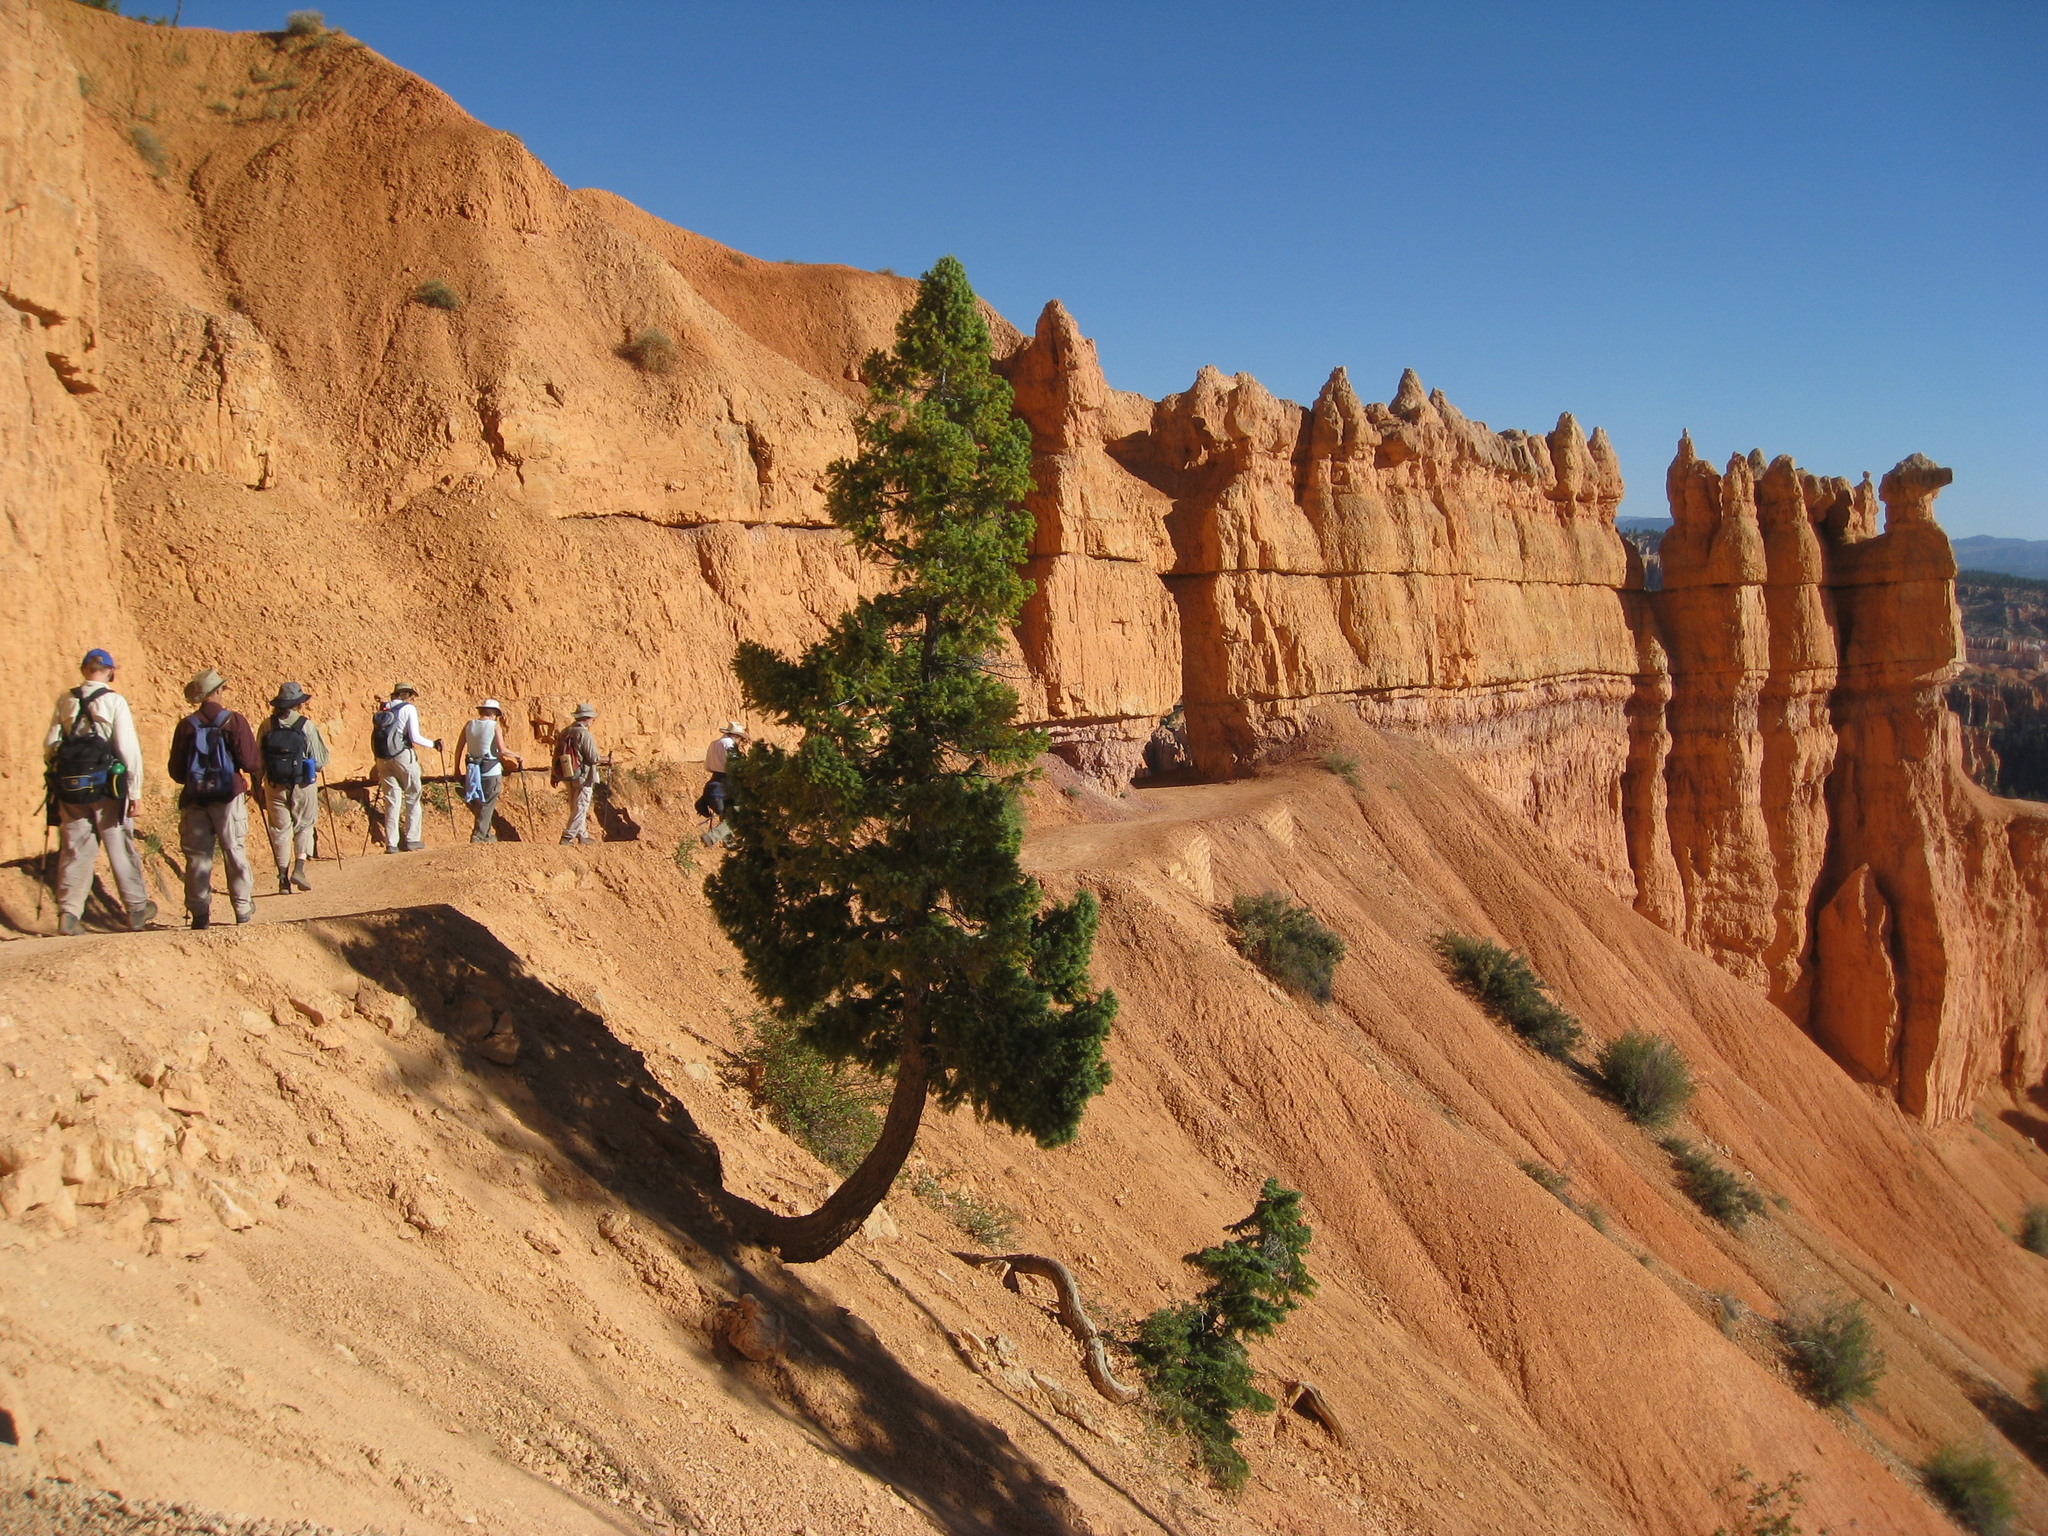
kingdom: Plantae
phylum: Tracheophyta
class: Pinopsida
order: Pinales
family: Cupressaceae
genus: Juniperus
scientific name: Juniperus osteosperma
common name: Utah juniper
